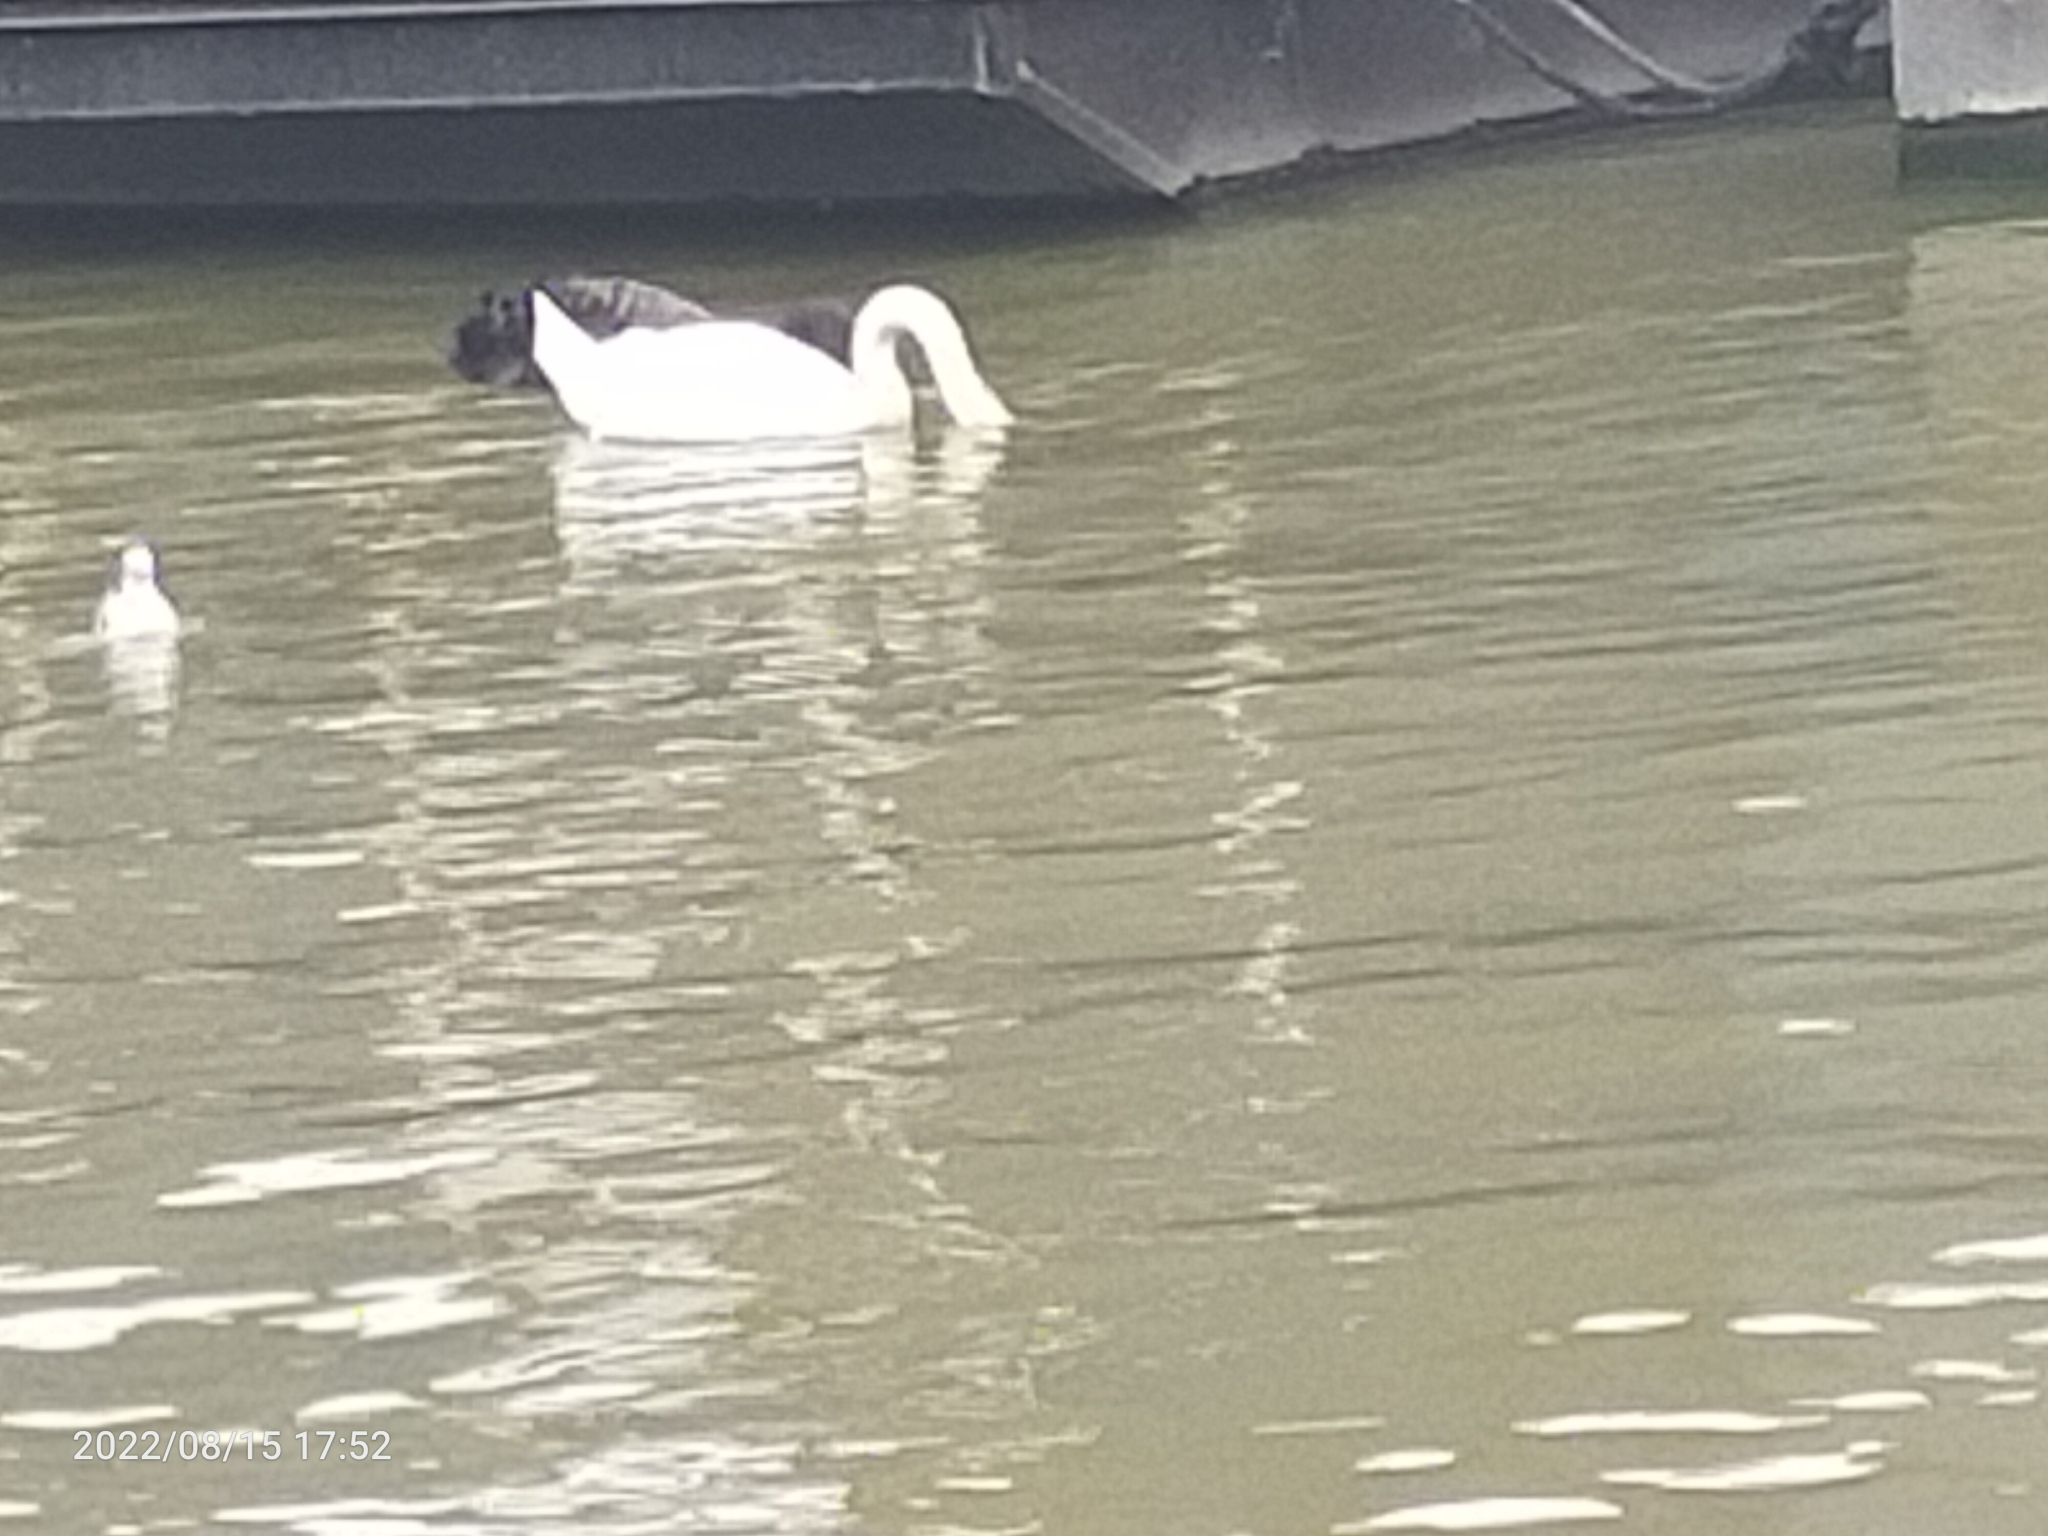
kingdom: Animalia
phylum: Chordata
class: Aves
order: Anseriformes
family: Anatidae
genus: Cygnus
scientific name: Cygnus olor
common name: Mute swan
